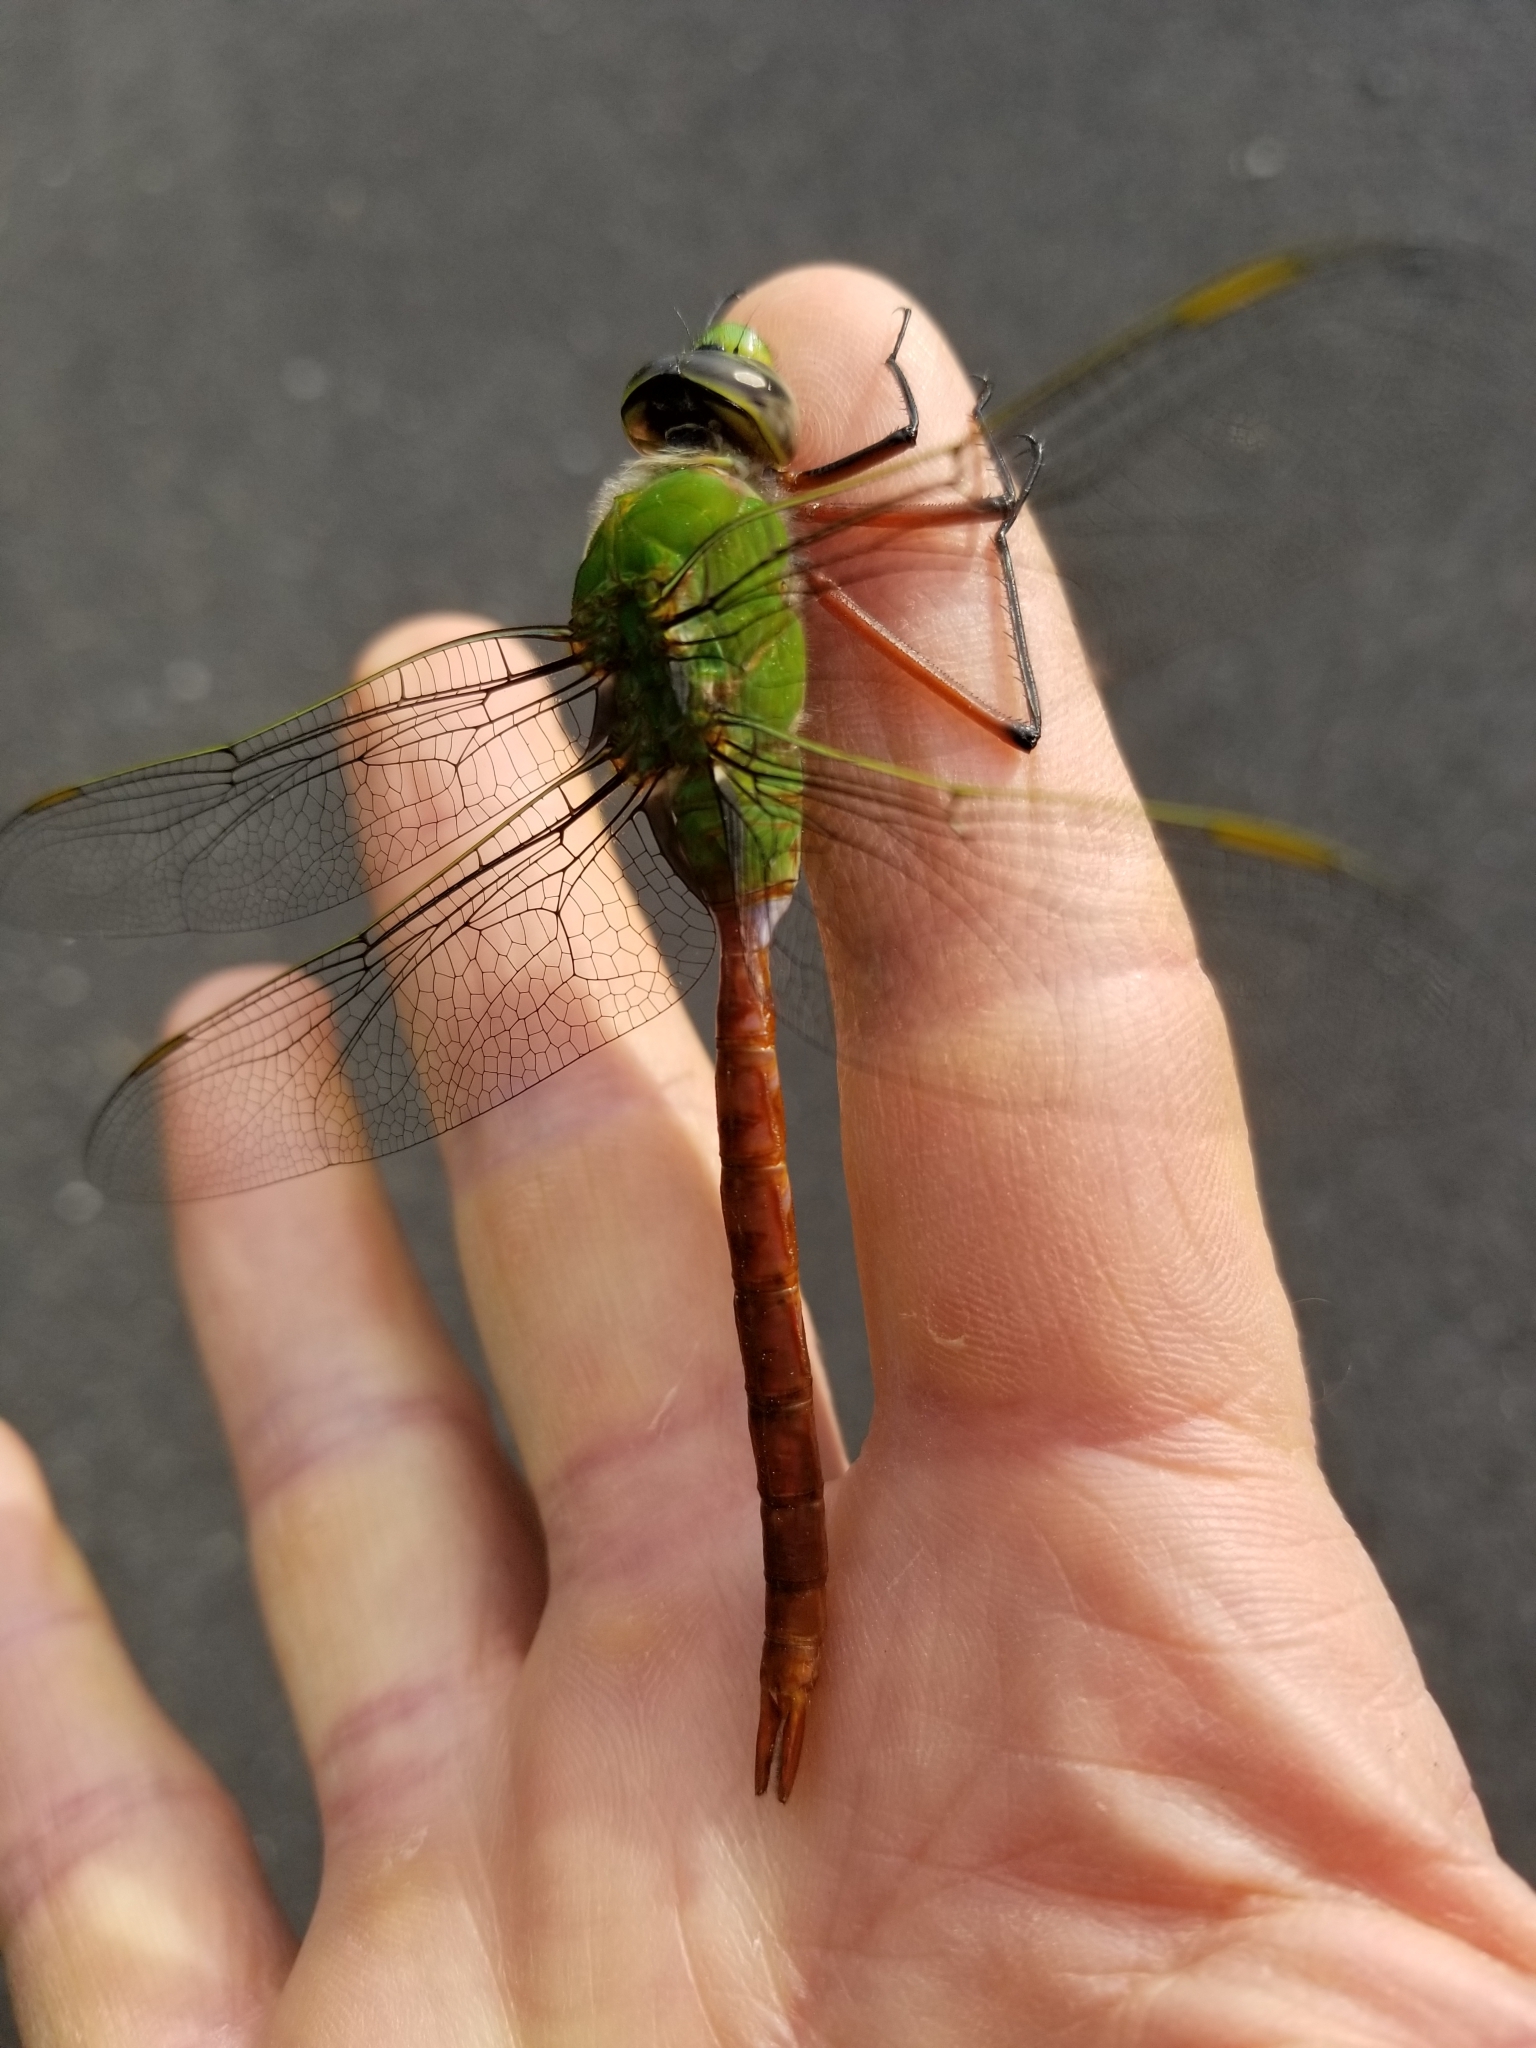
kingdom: Animalia
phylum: Arthropoda
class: Insecta
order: Odonata
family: Aeshnidae
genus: Anax
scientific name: Anax longipes
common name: Comet darner
